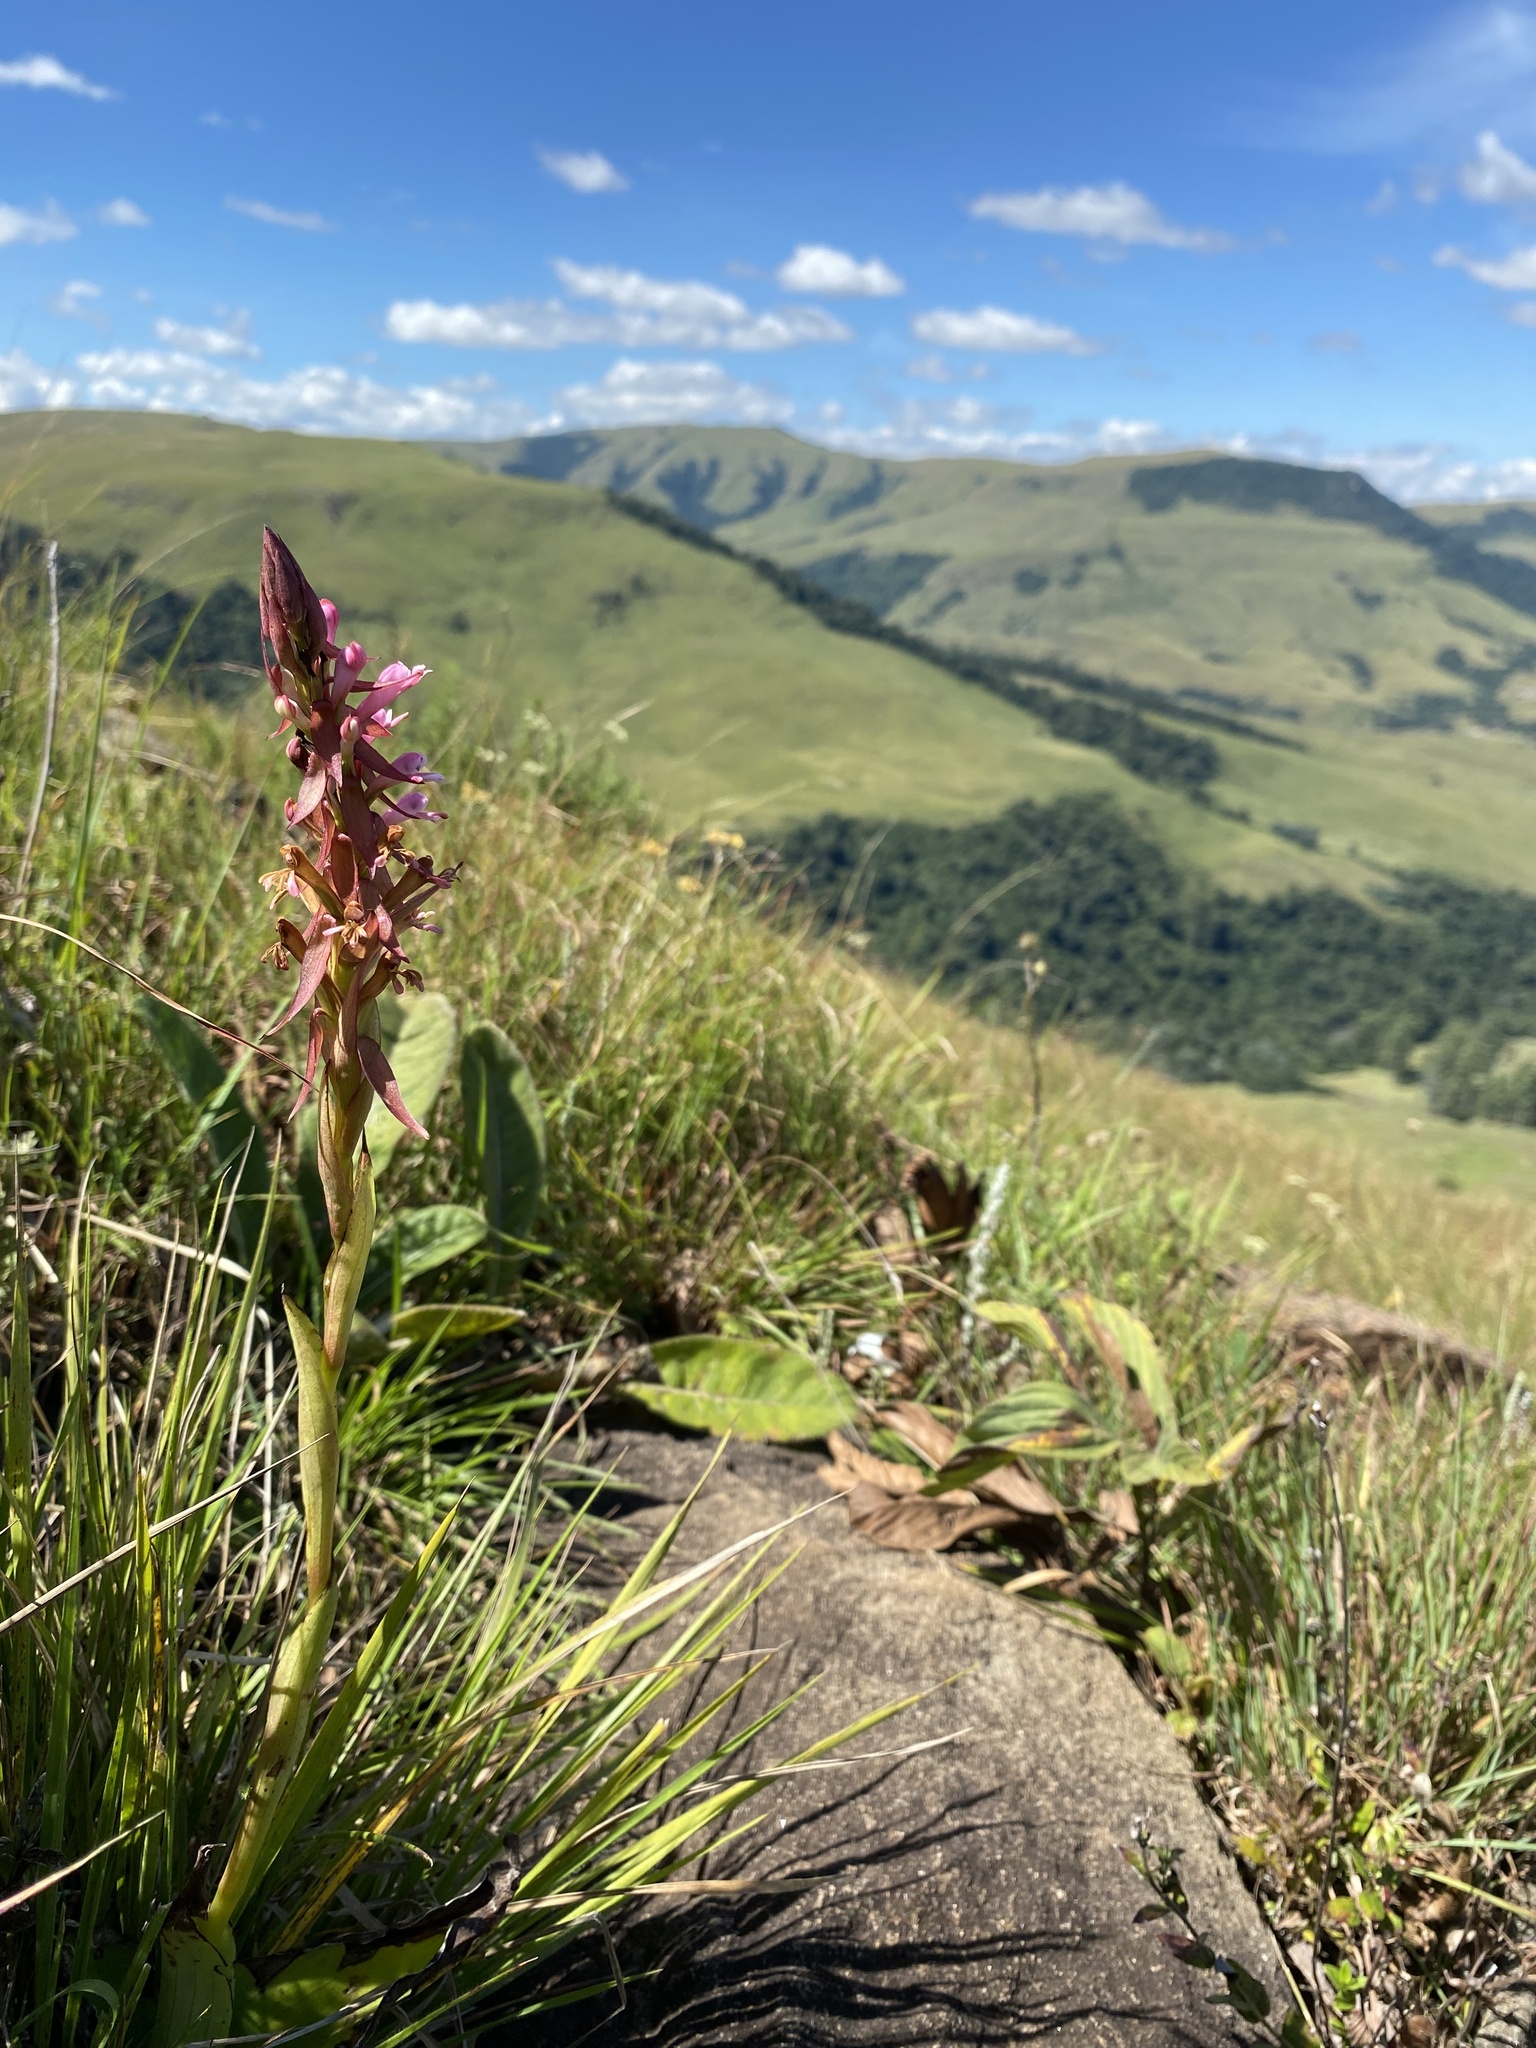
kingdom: Plantae
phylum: Tracheophyta
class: Liliopsida
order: Asparagales
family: Orchidaceae
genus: Satyrium
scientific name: Satyrium macrophyllum
